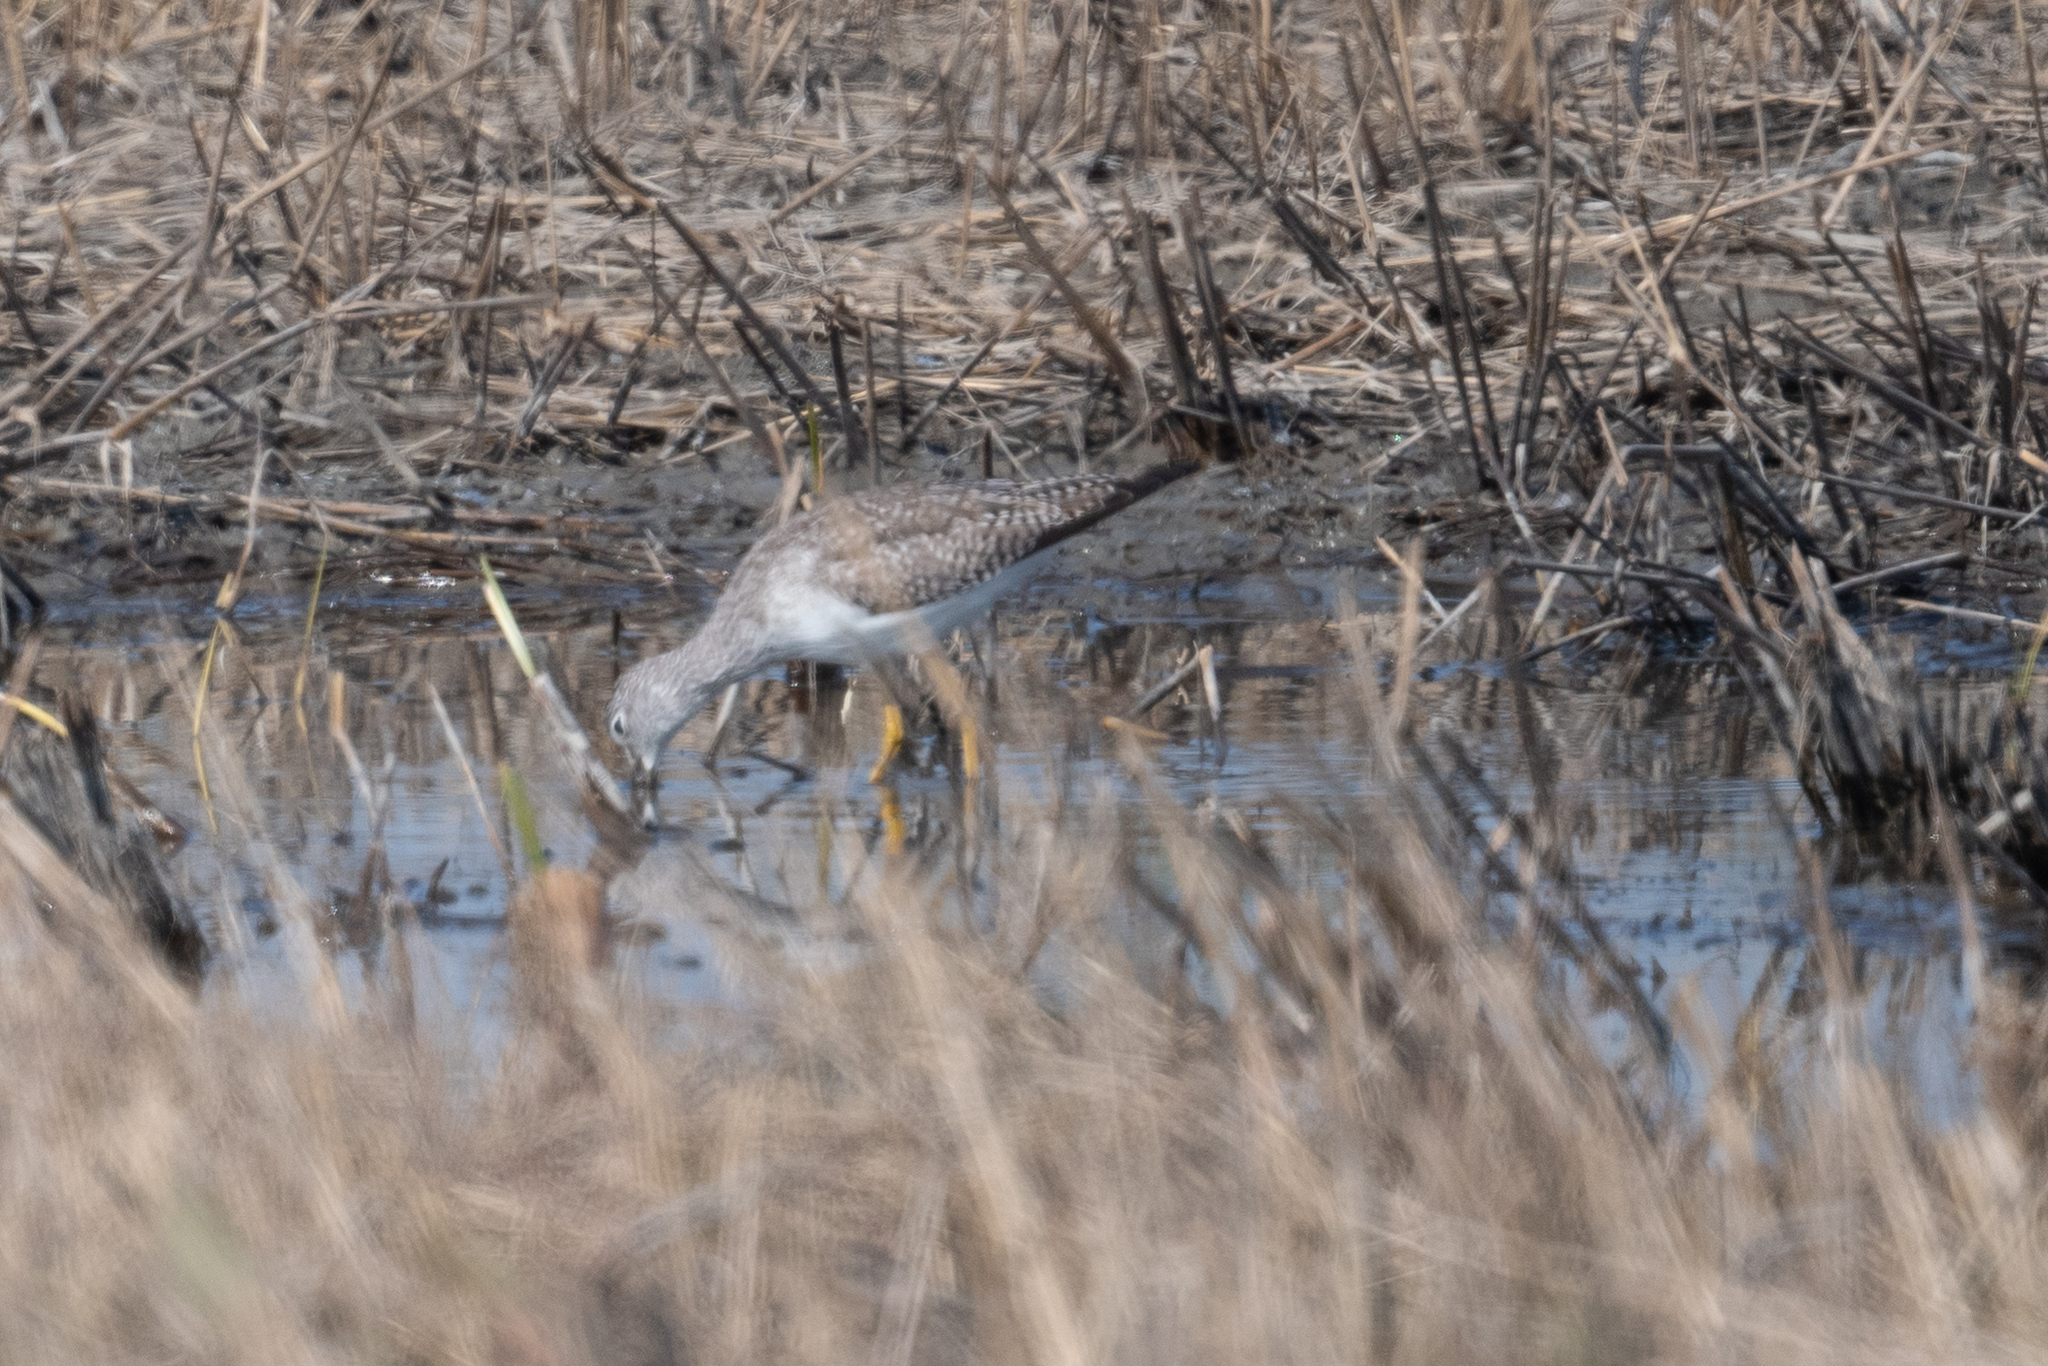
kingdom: Animalia
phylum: Chordata
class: Aves
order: Charadriiformes
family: Scolopacidae
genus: Tringa
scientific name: Tringa melanoleuca
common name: Greater yellowlegs
